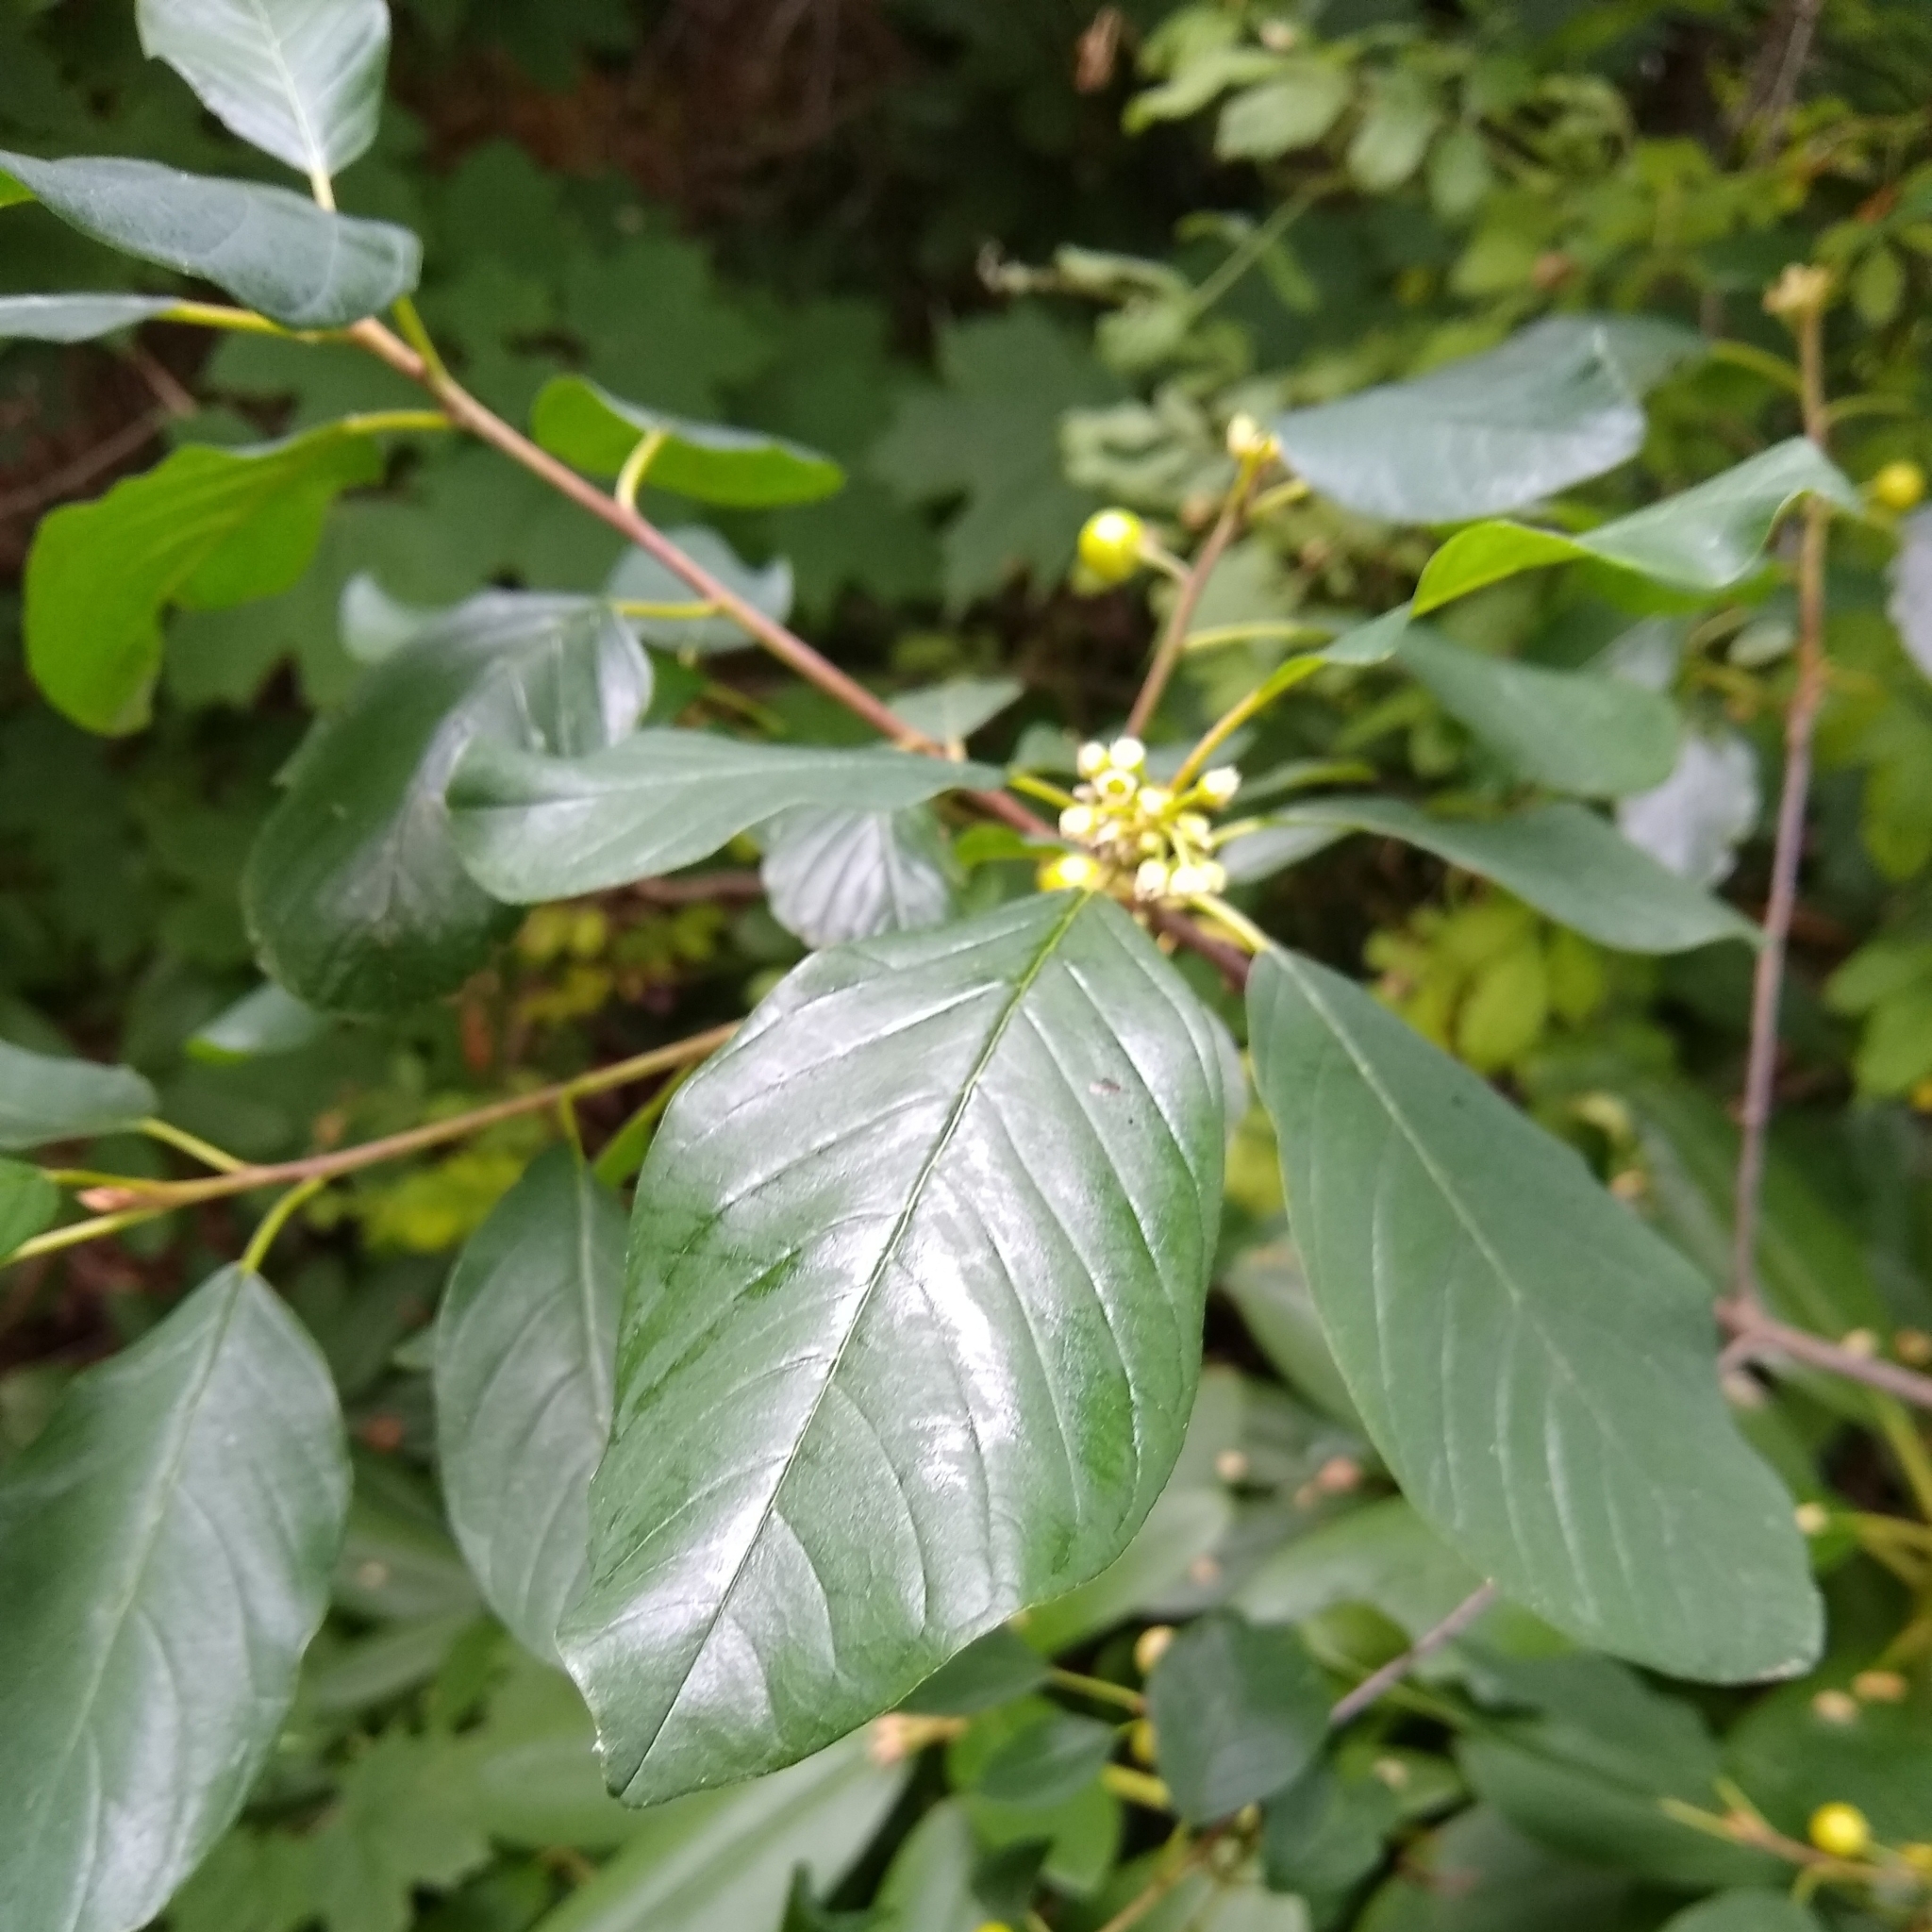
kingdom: Plantae
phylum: Tracheophyta
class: Magnoliopsida
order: Rosales
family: Rhamnaceae
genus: Frangula
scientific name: Frangula alnus
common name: Alder buckthorn
